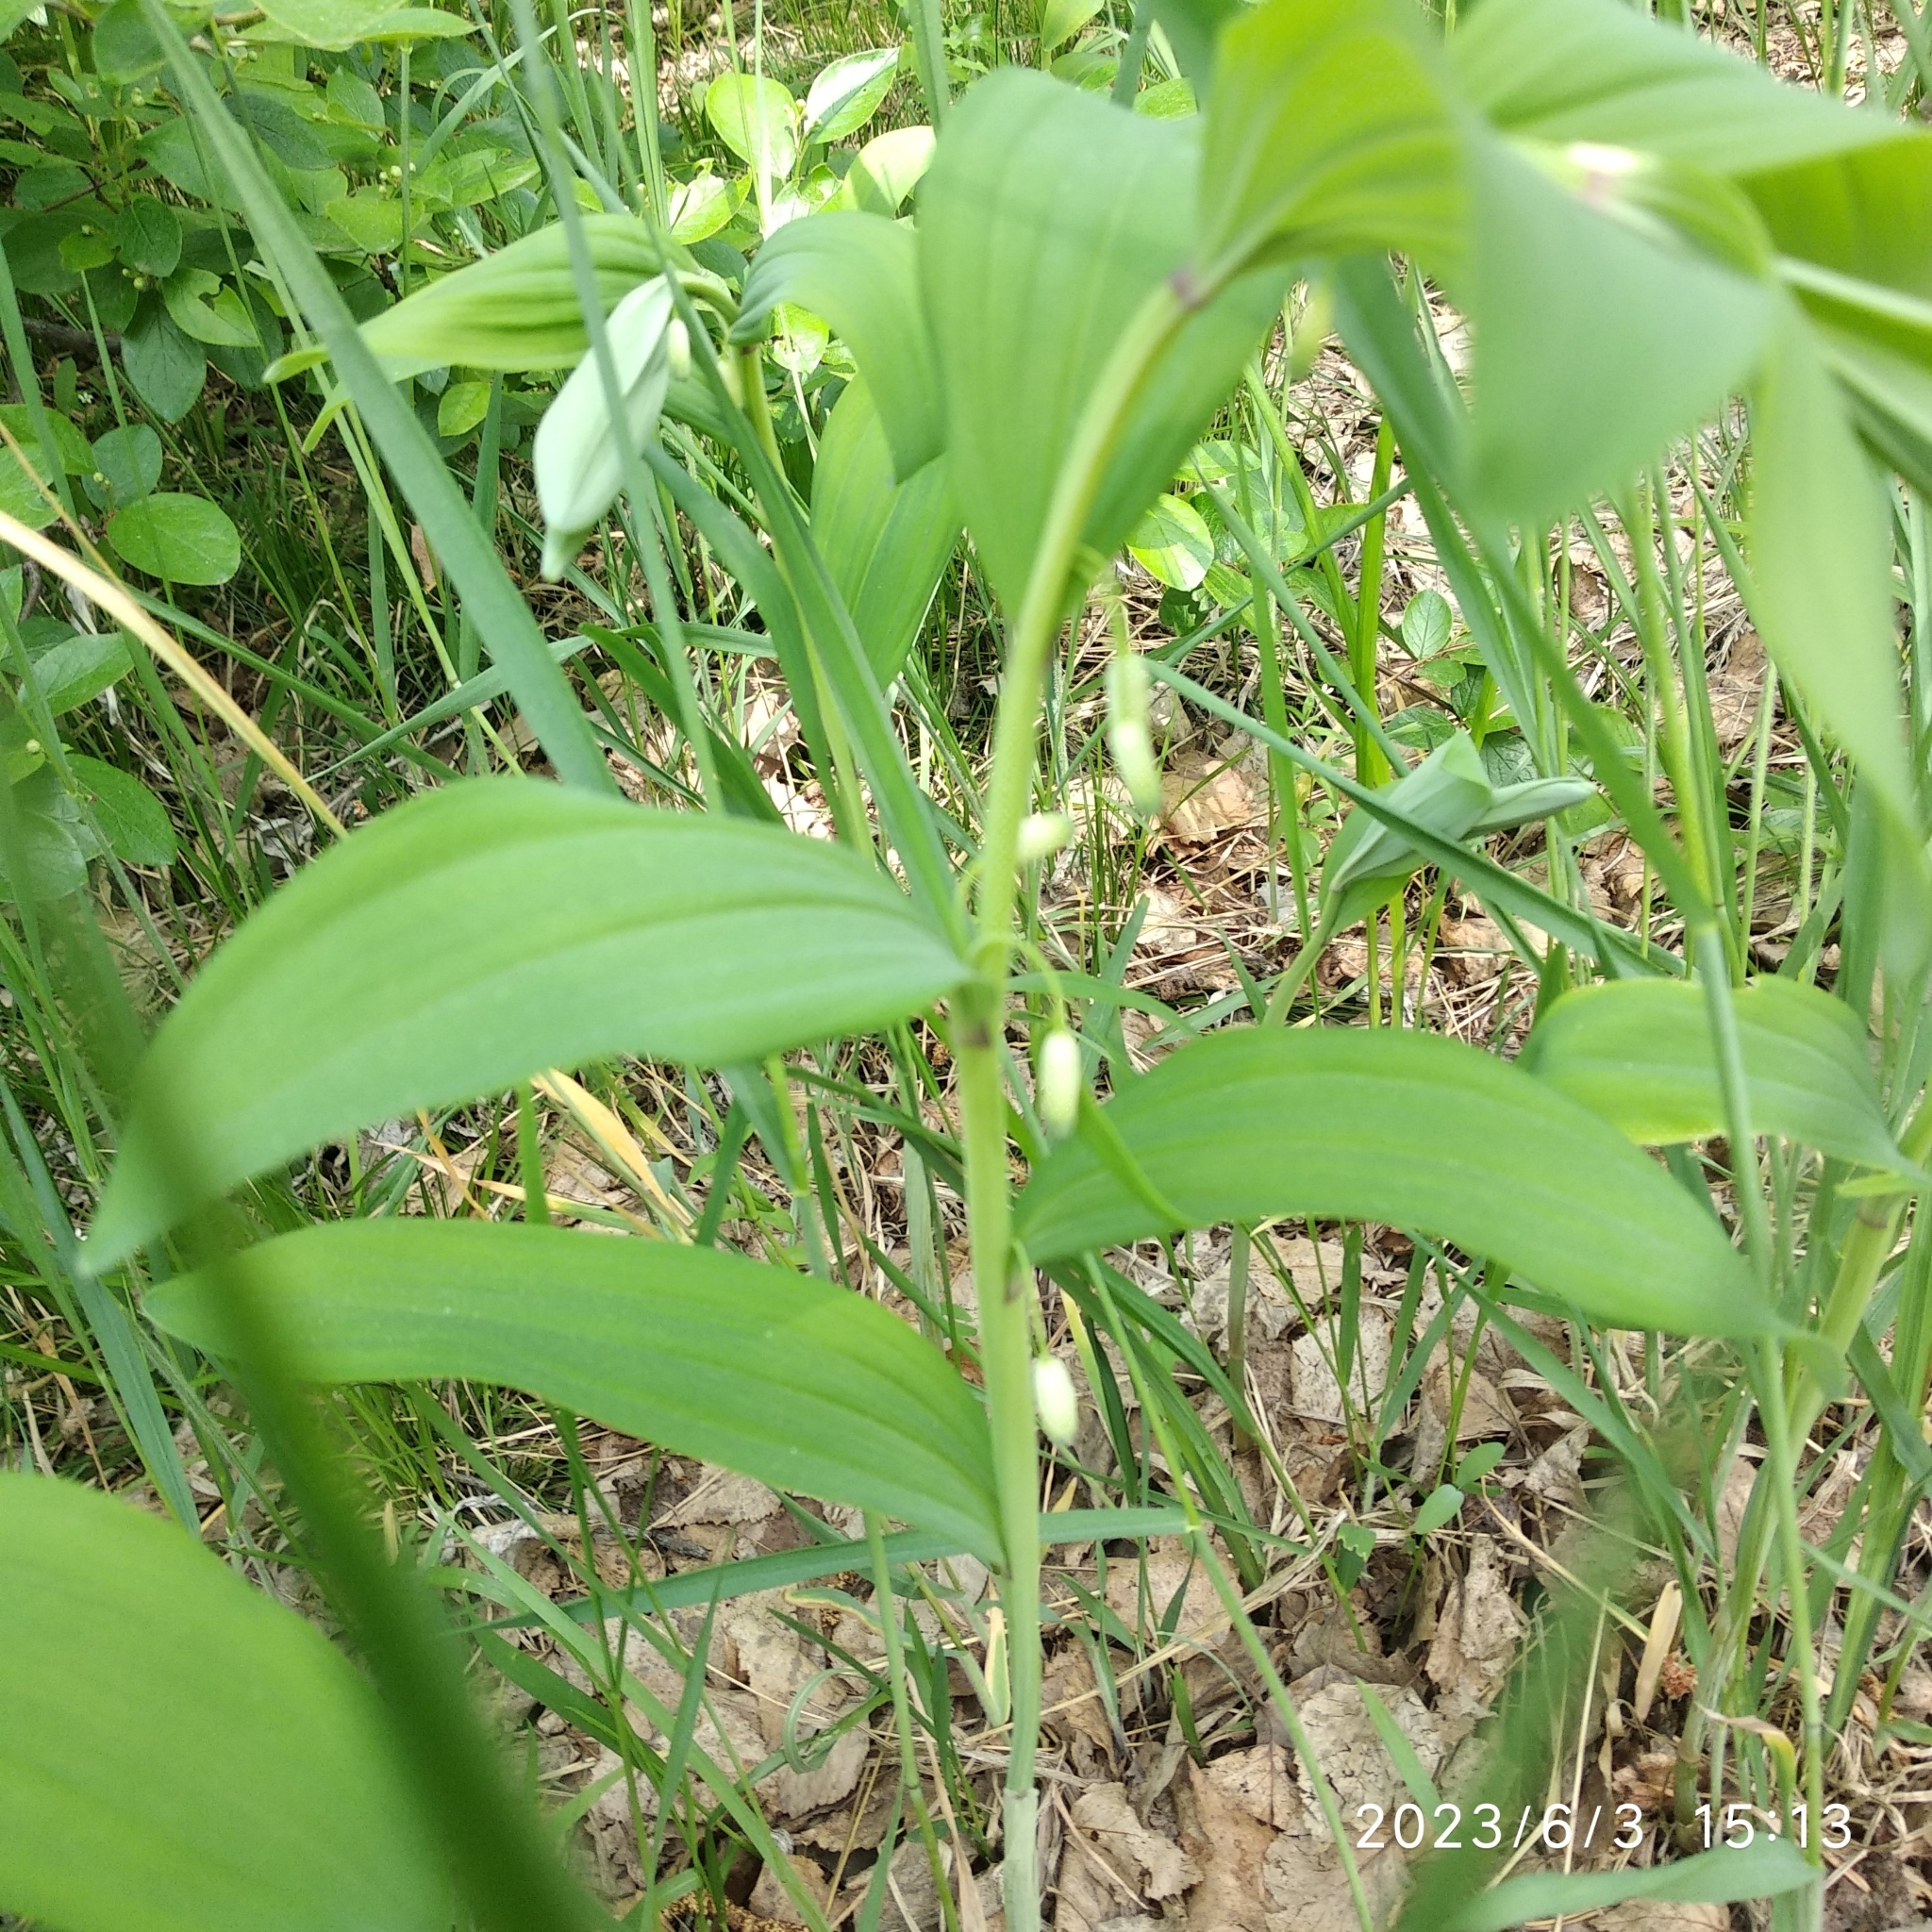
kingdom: Plantae
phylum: Tracheophyta
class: Liliopsida
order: Asparagales
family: Asparagaceae
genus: Polygonatum
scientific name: Polygonatum odoratum
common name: Angular solomon's-seal
